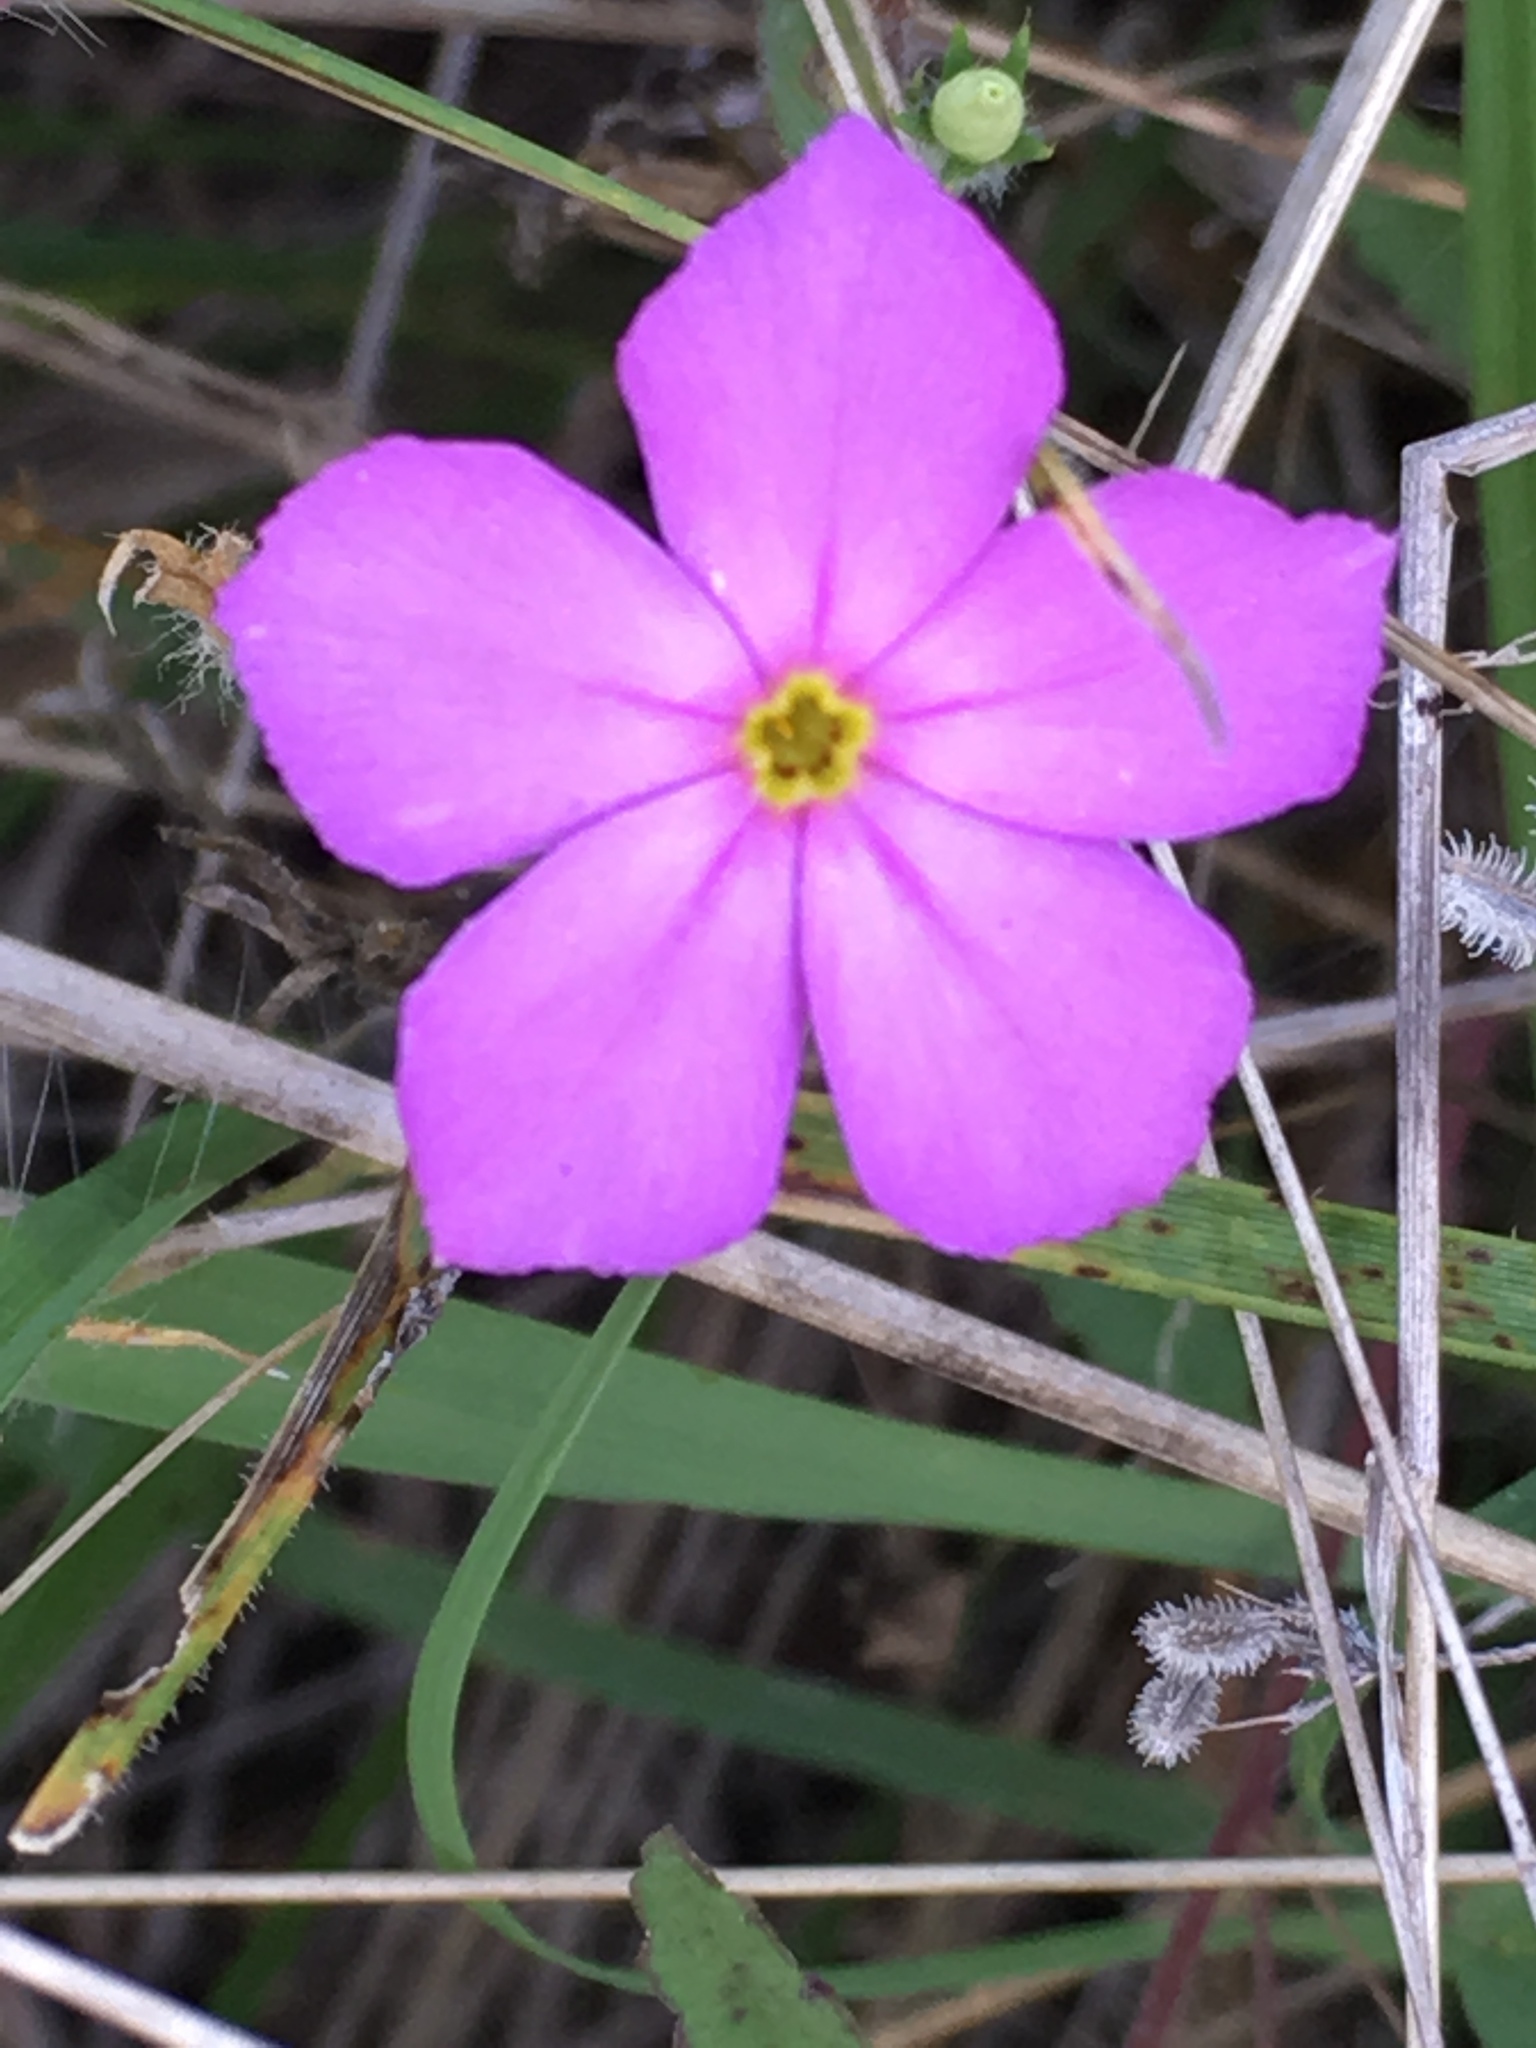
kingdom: Plantae
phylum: Tracheophyta
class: Magnoliopsida
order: Ericales
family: Polemoniaceae
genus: Phlox
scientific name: Phlox roemeriana
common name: Roemer's phlox
